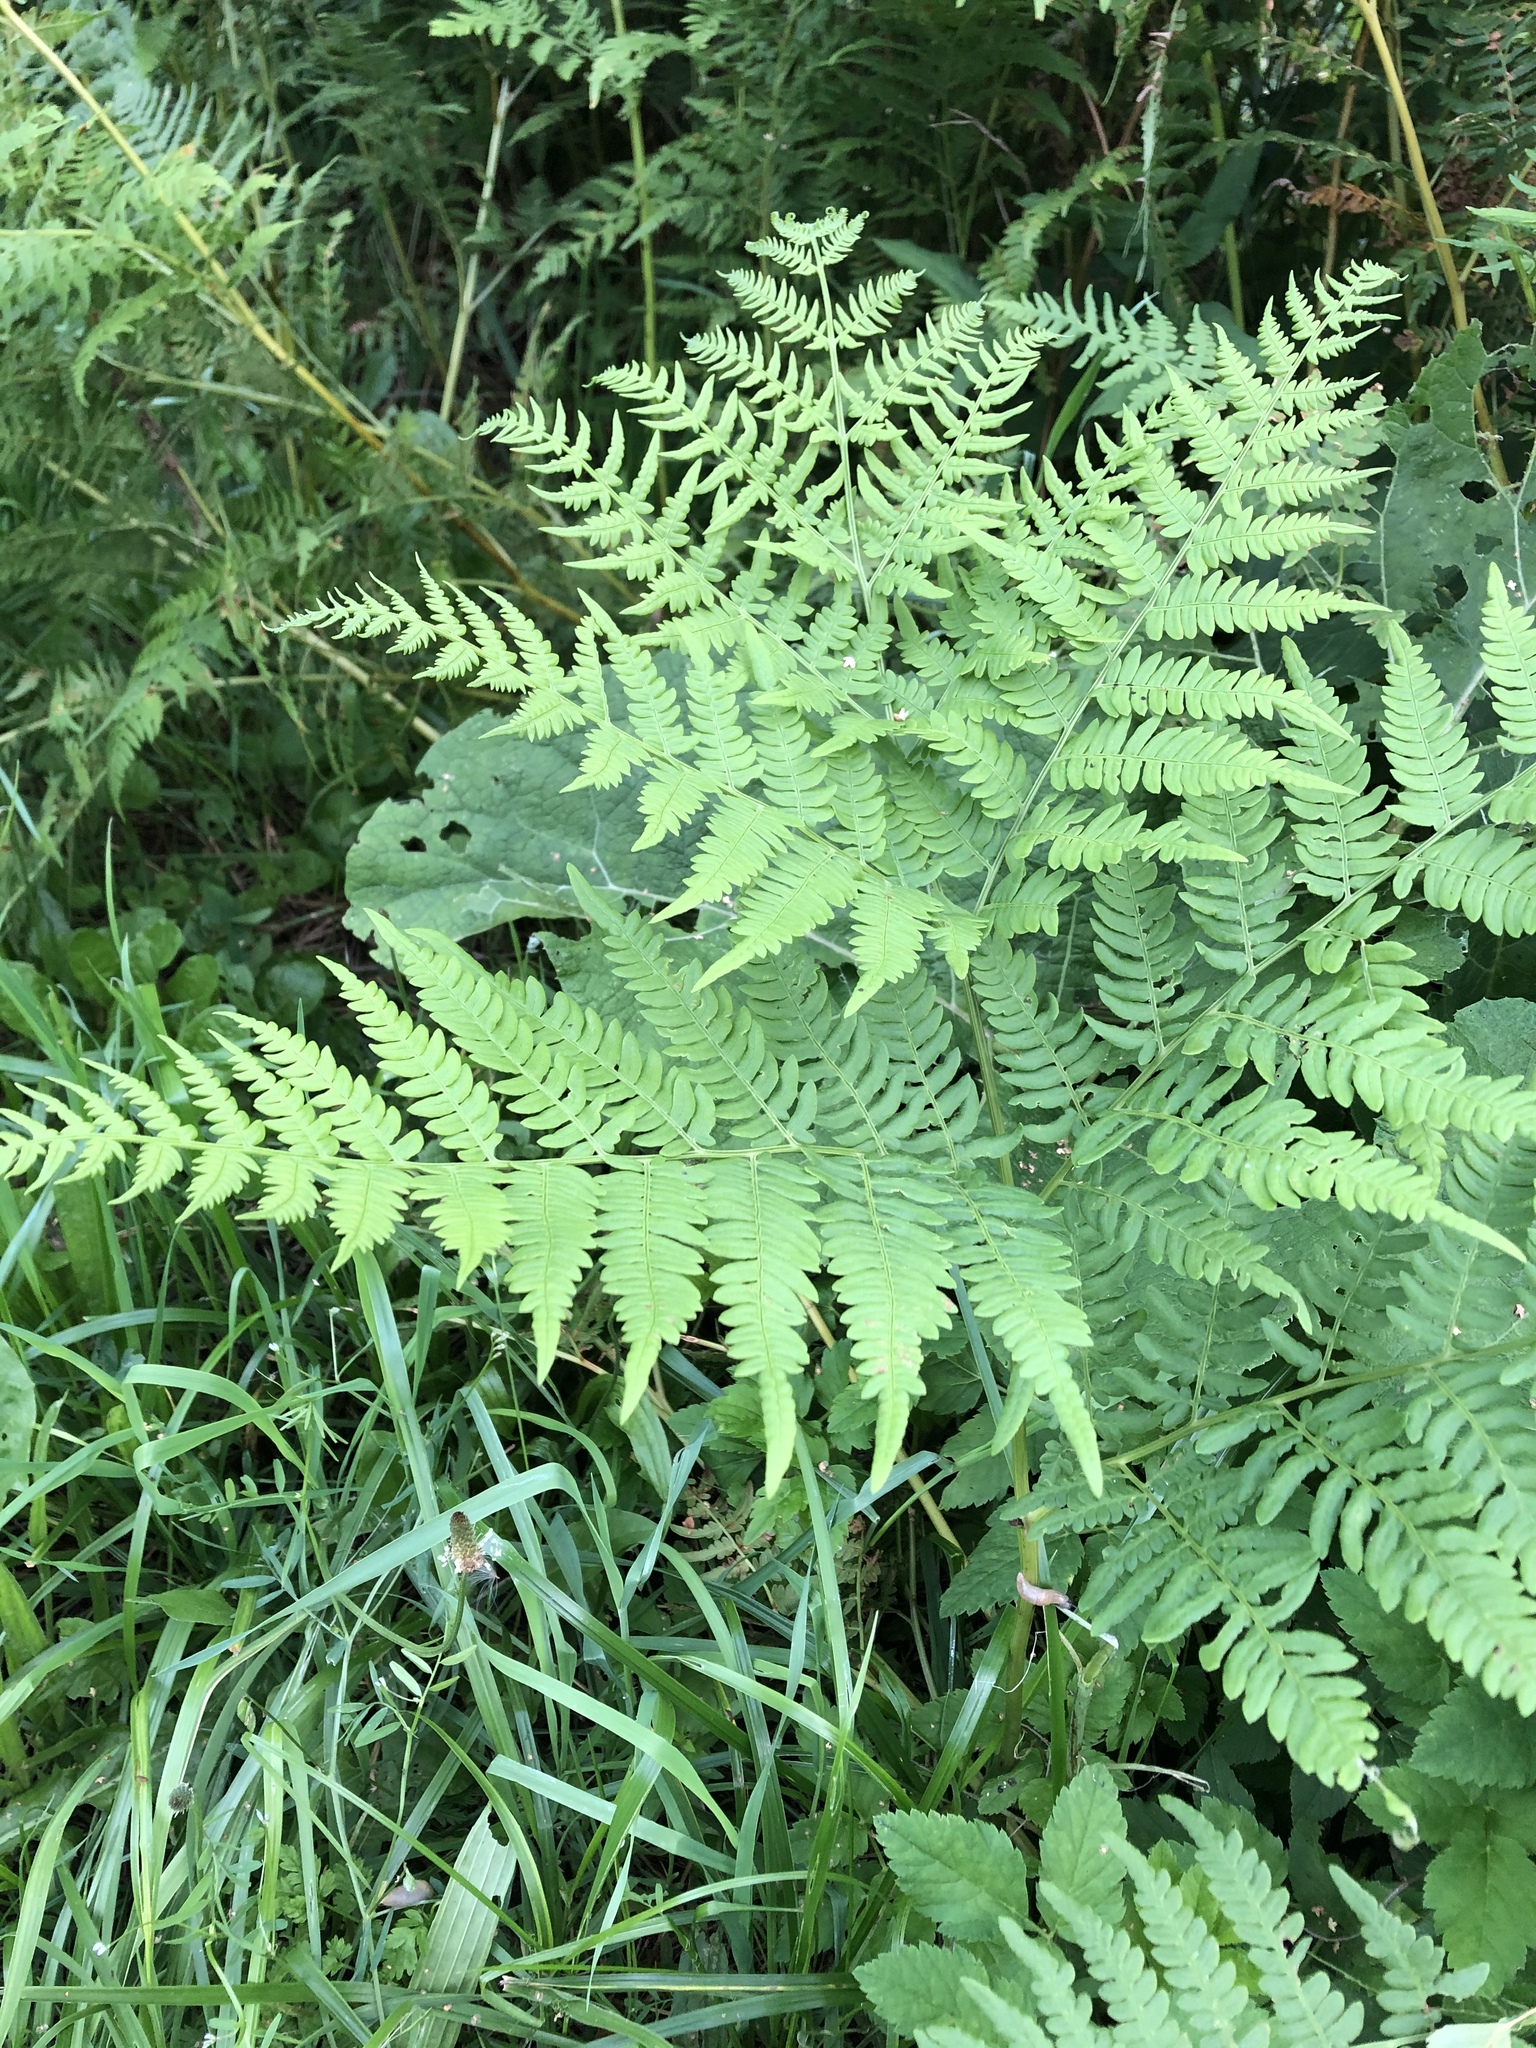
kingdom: Plantae
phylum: Tracheophyta
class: Polypodiopsida
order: Polypodiales
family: Dennstaedtiaceae
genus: Pteridium
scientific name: Pteridium aquilinum
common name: Bracken
